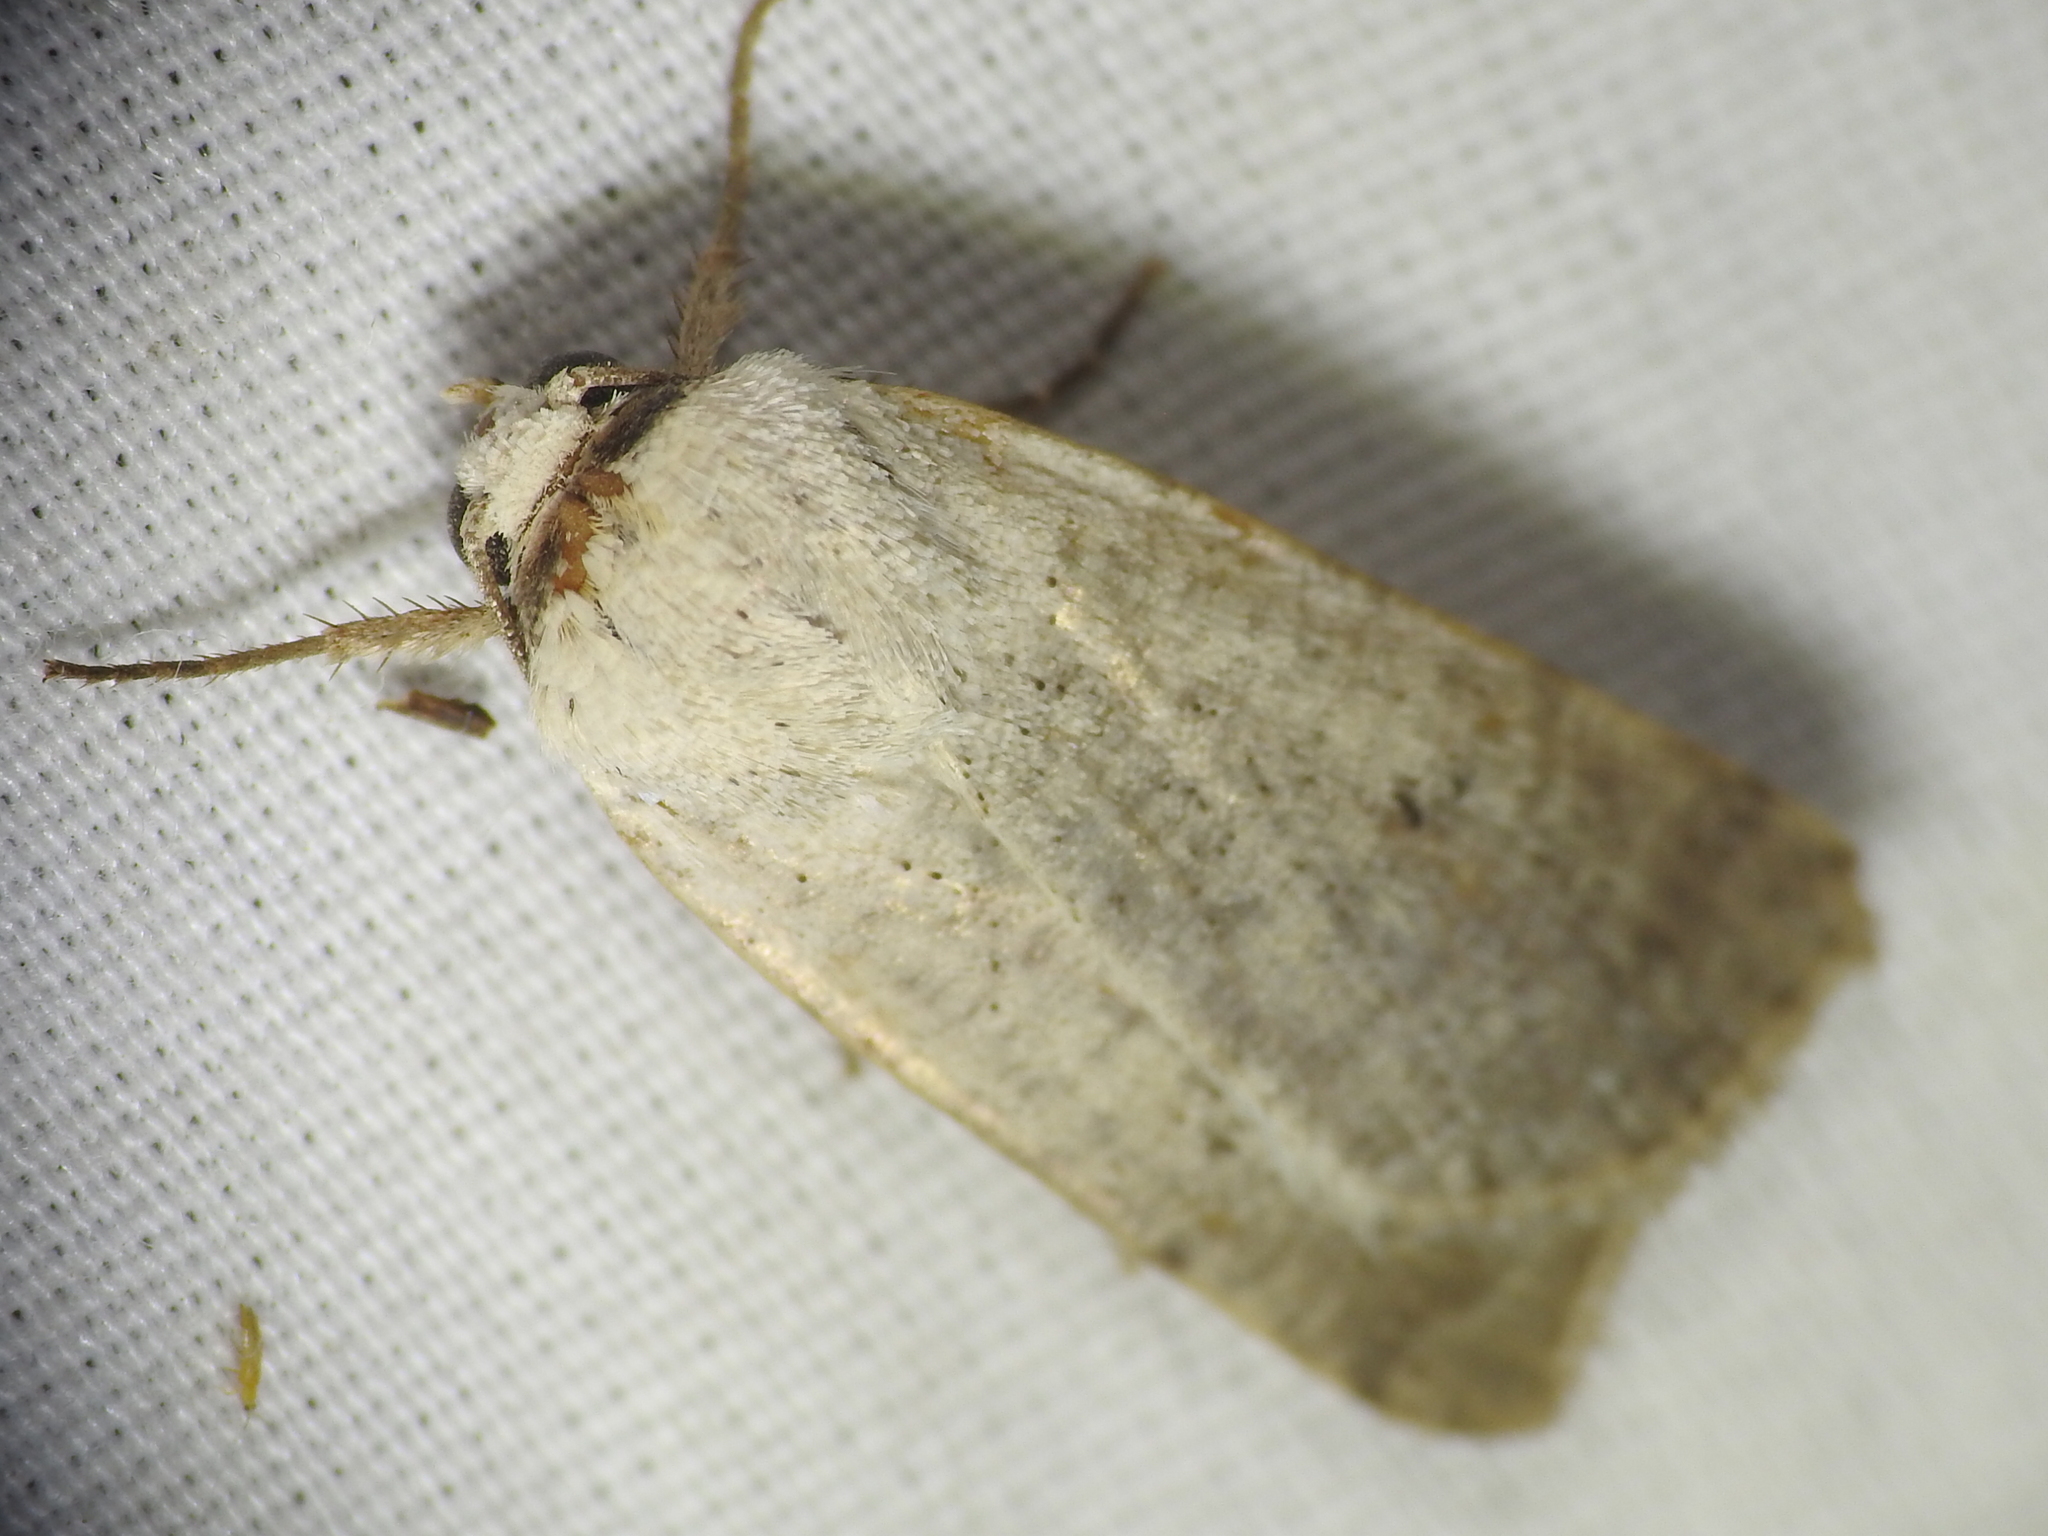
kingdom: Animalia
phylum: Arthropoda
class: Insecta
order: Lepidoptera
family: Noctuidae
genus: Anicla
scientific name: Anicla digna
